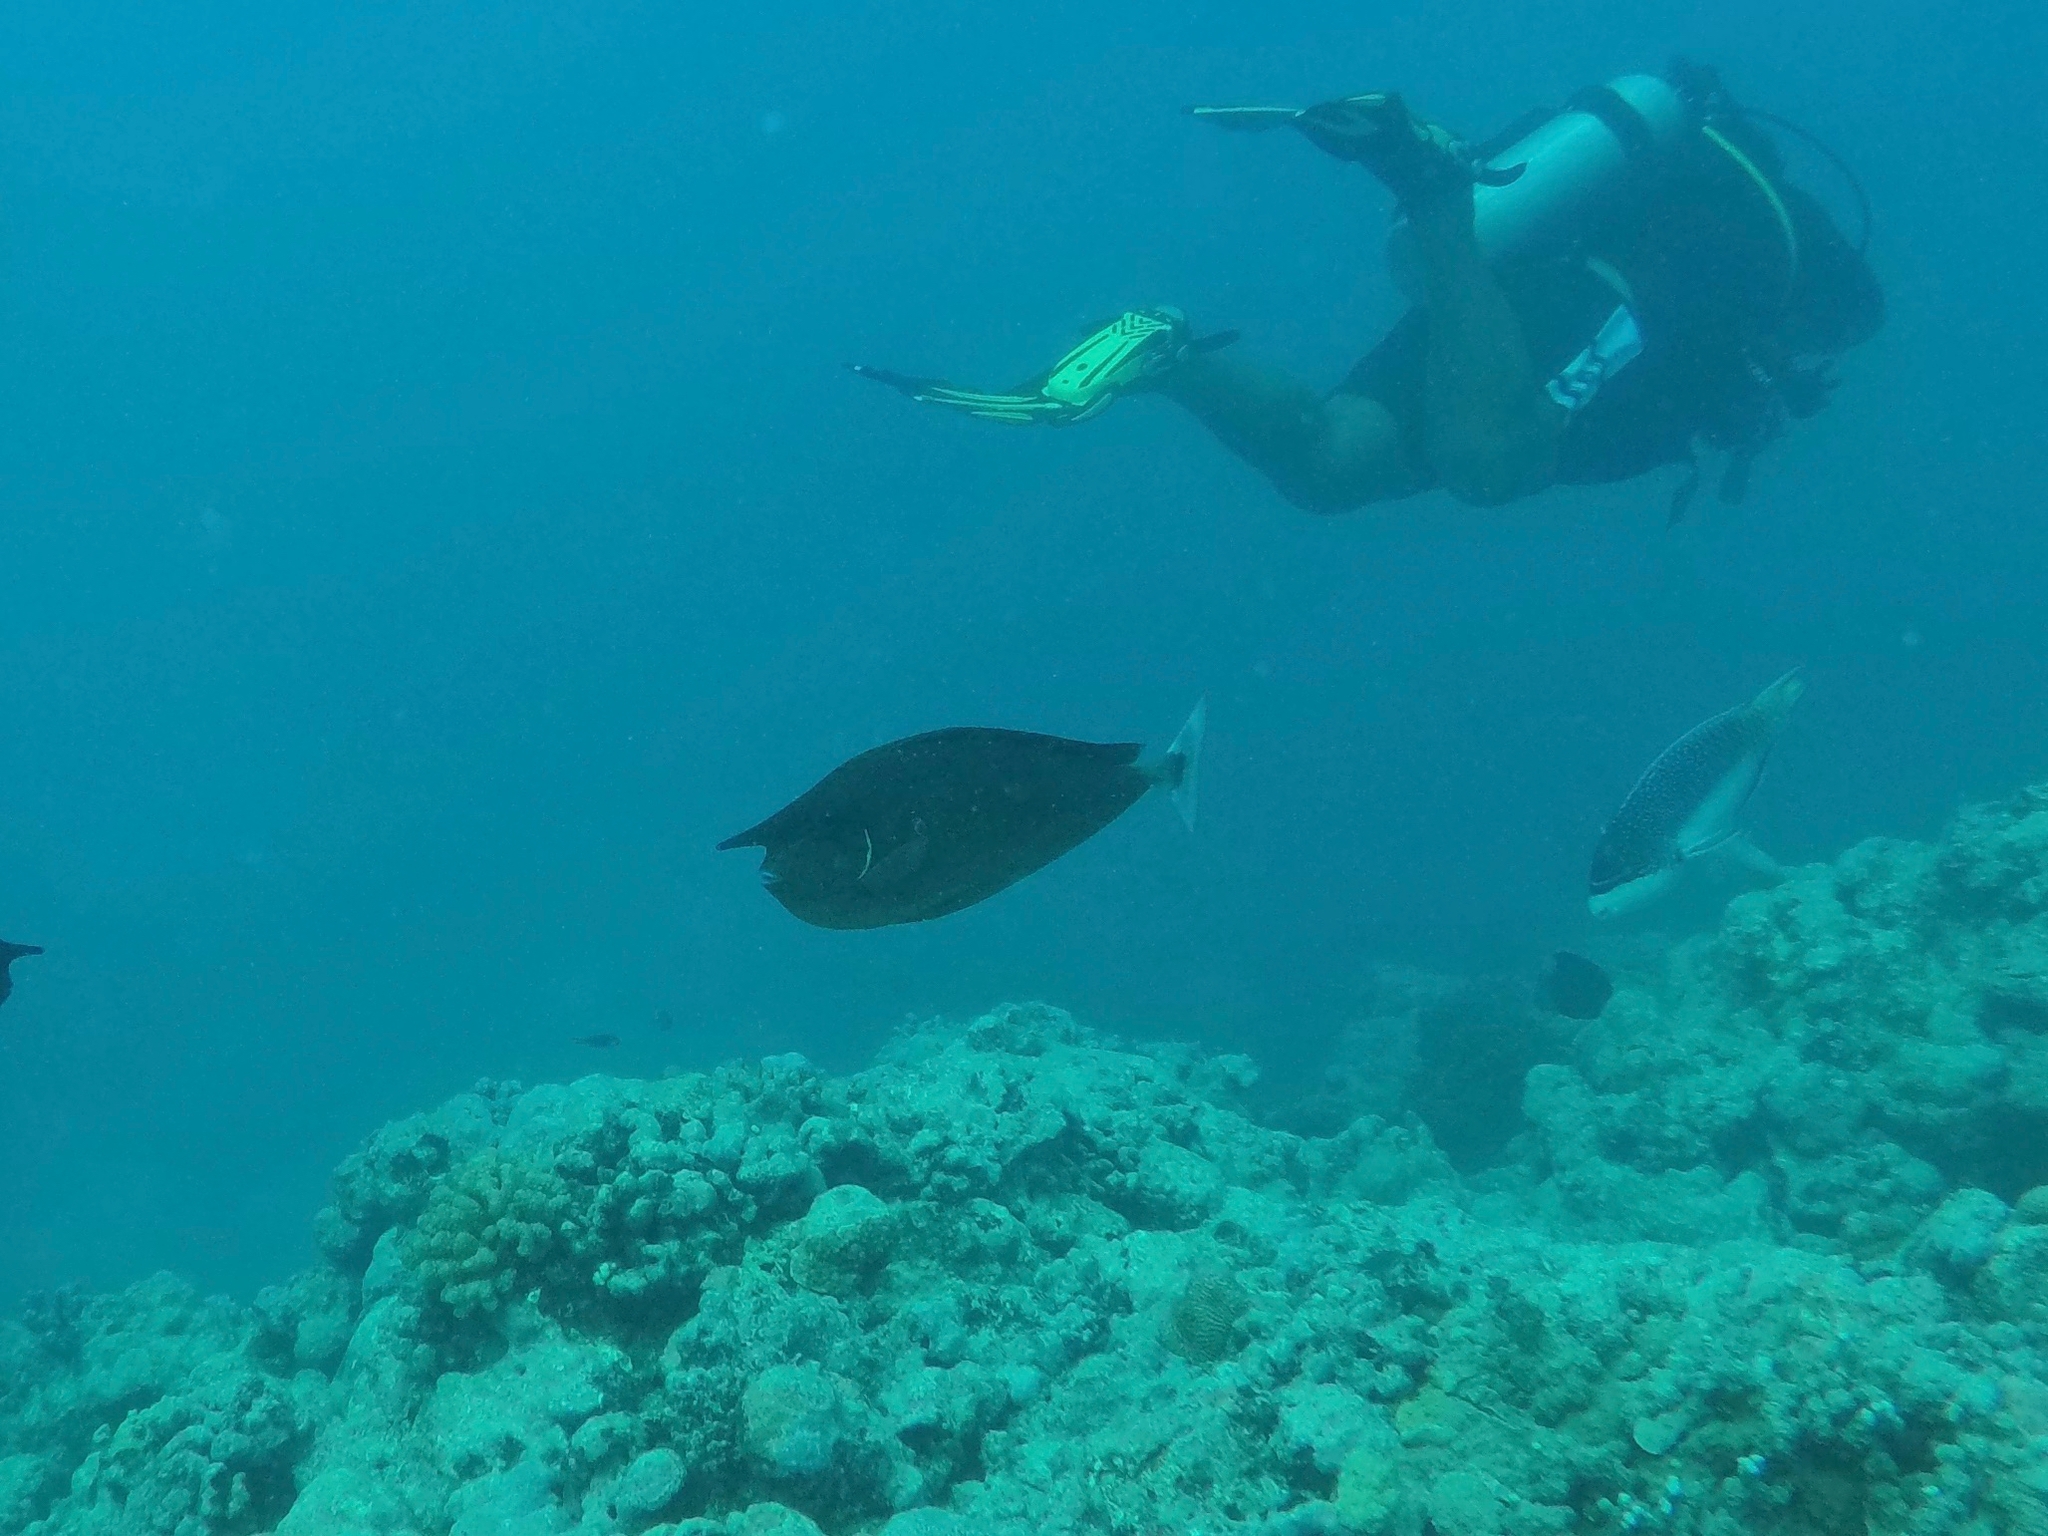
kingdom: Animalia
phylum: Chordata
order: Perciformes
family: Acanthuridae
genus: Naso
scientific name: Naso brevirostris
